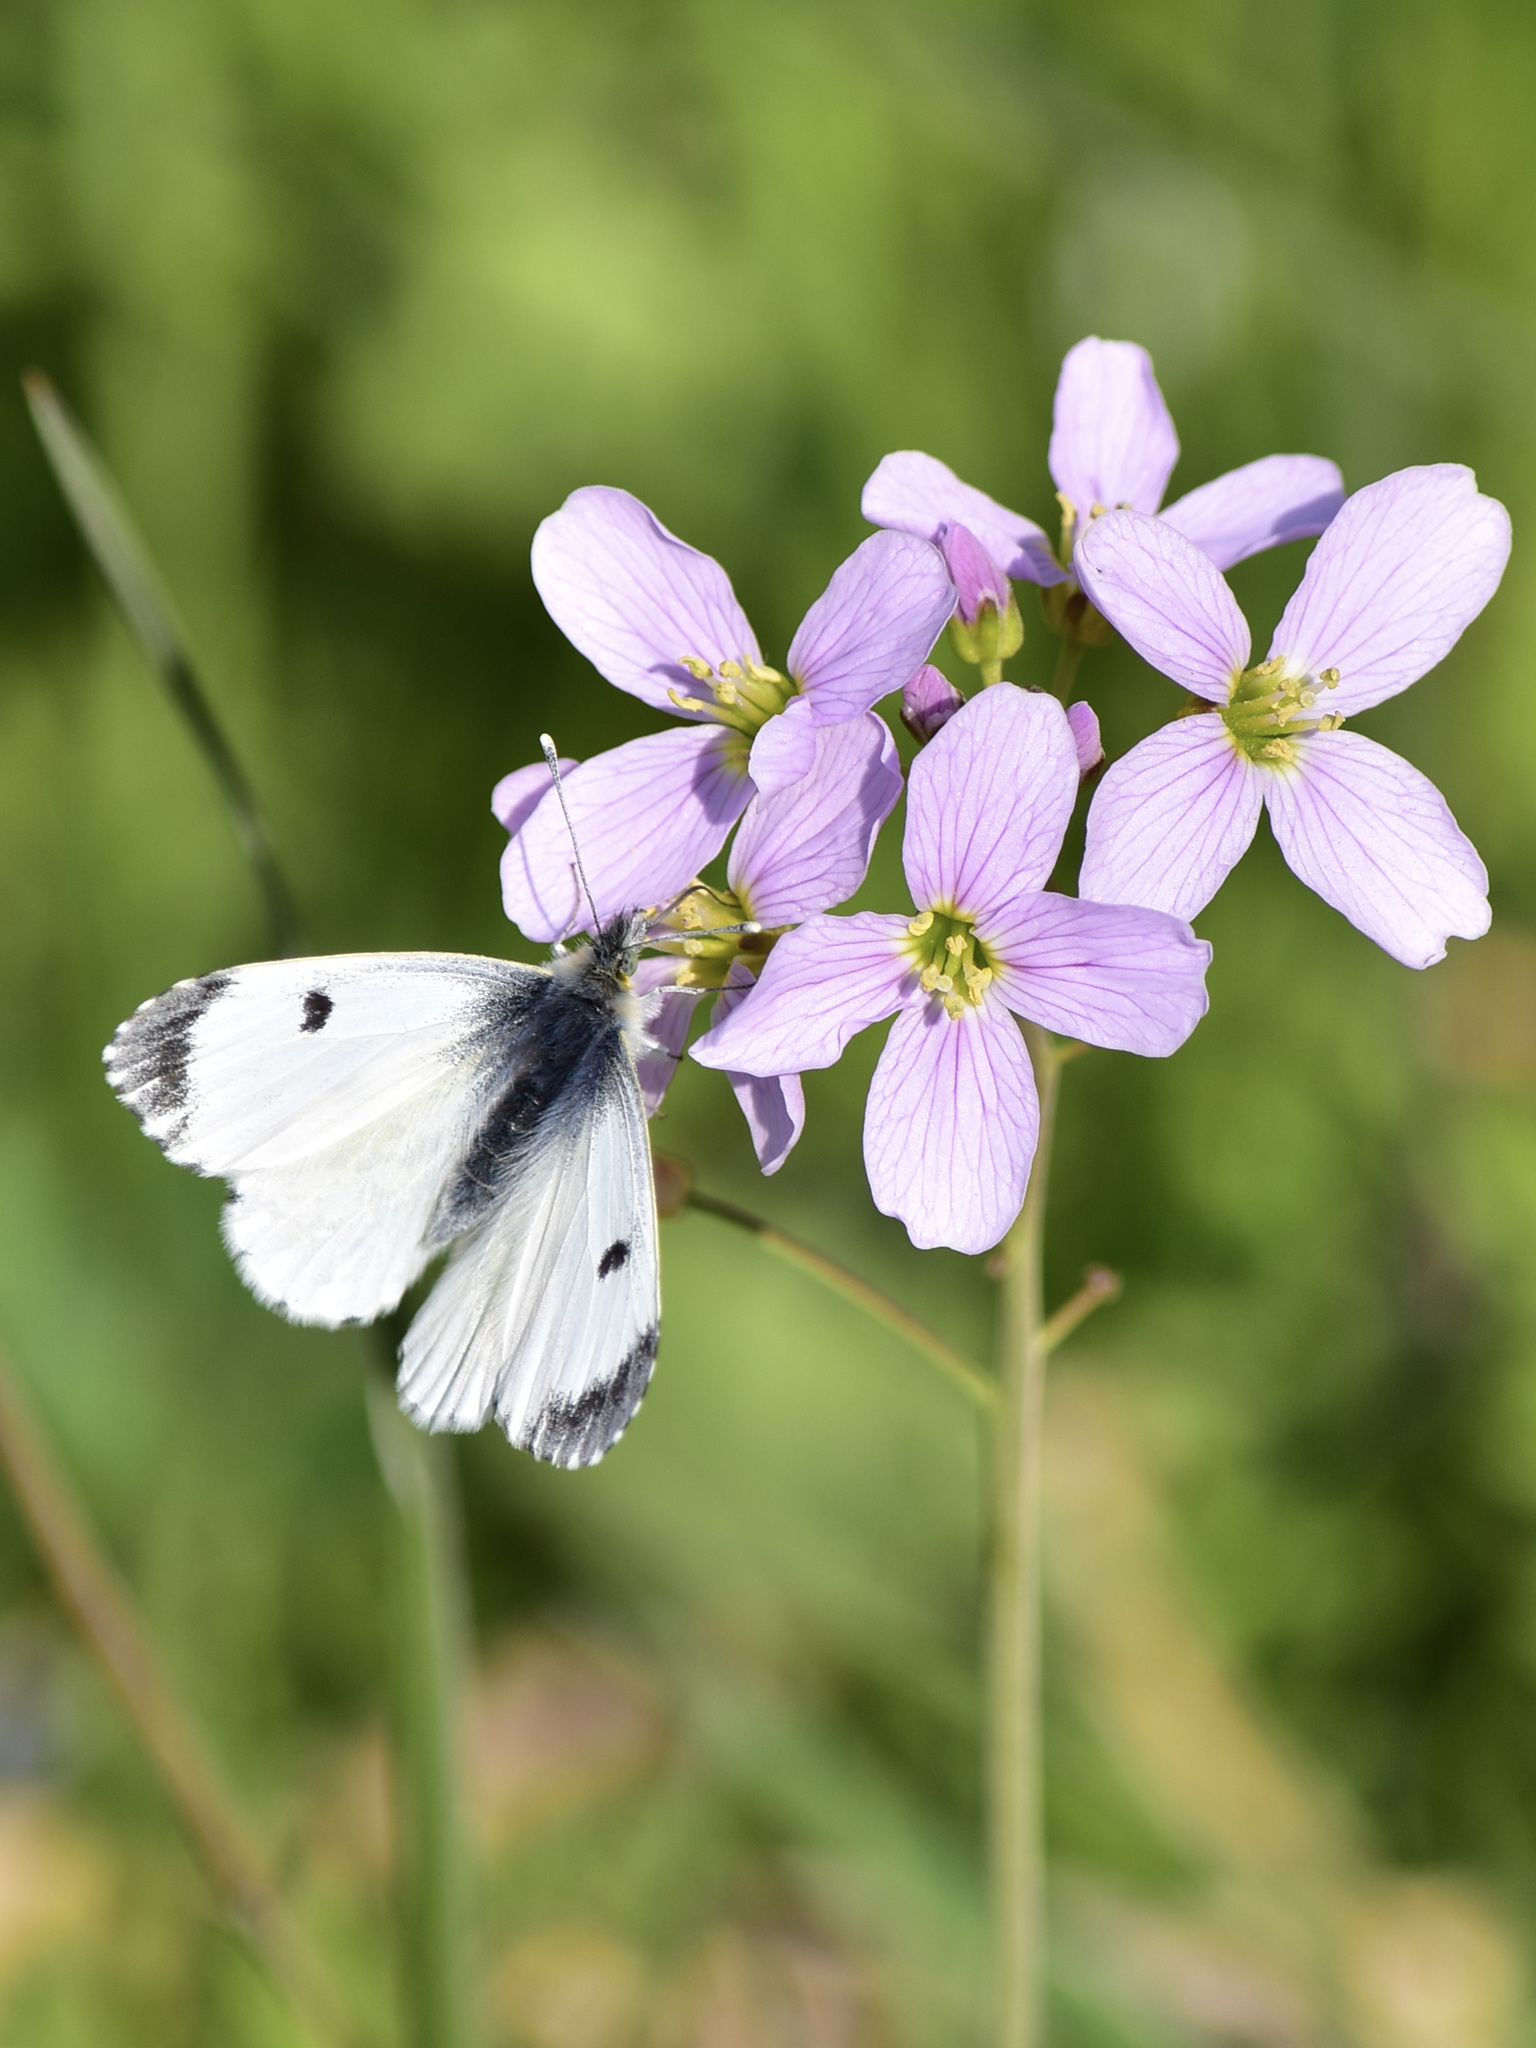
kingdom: Animalia
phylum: Arthropoda
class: Insecta
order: Lepidoptera
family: Pieridae
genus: Anthocharis
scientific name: Anthocharis cardamines
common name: Orange-tip
